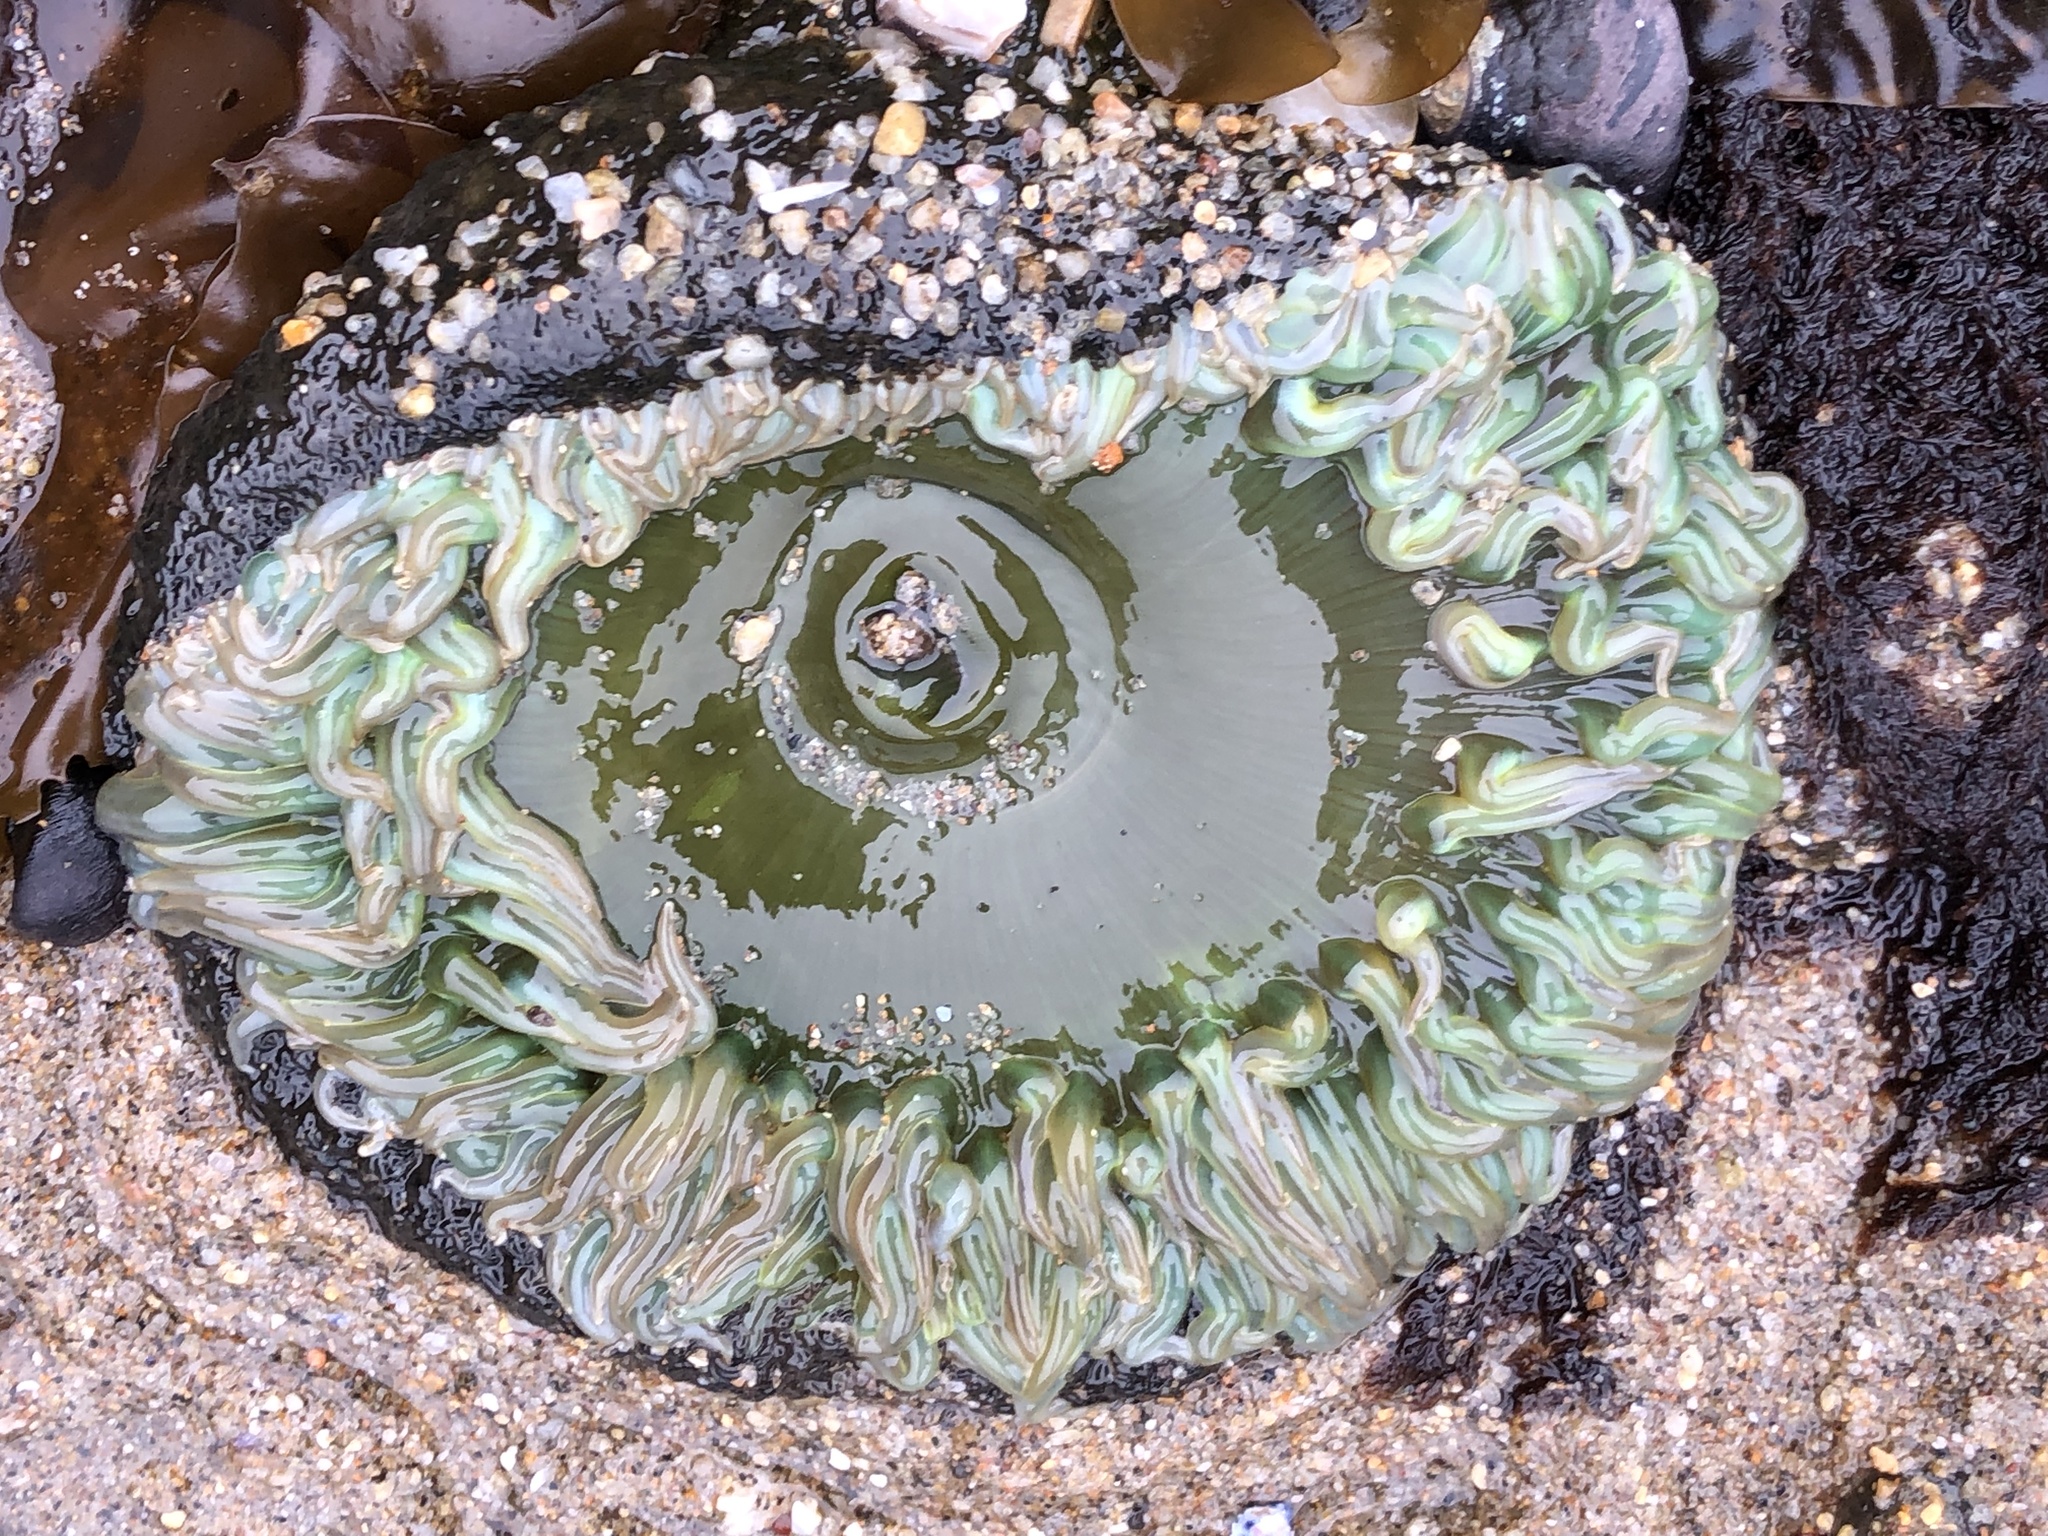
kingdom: Animalia
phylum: Cnidaria
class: Anthozoa
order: Actiniaria
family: Actiniidae
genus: Anthopleura
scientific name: Anthopleura xanthogrammica
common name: Giant green anemone
